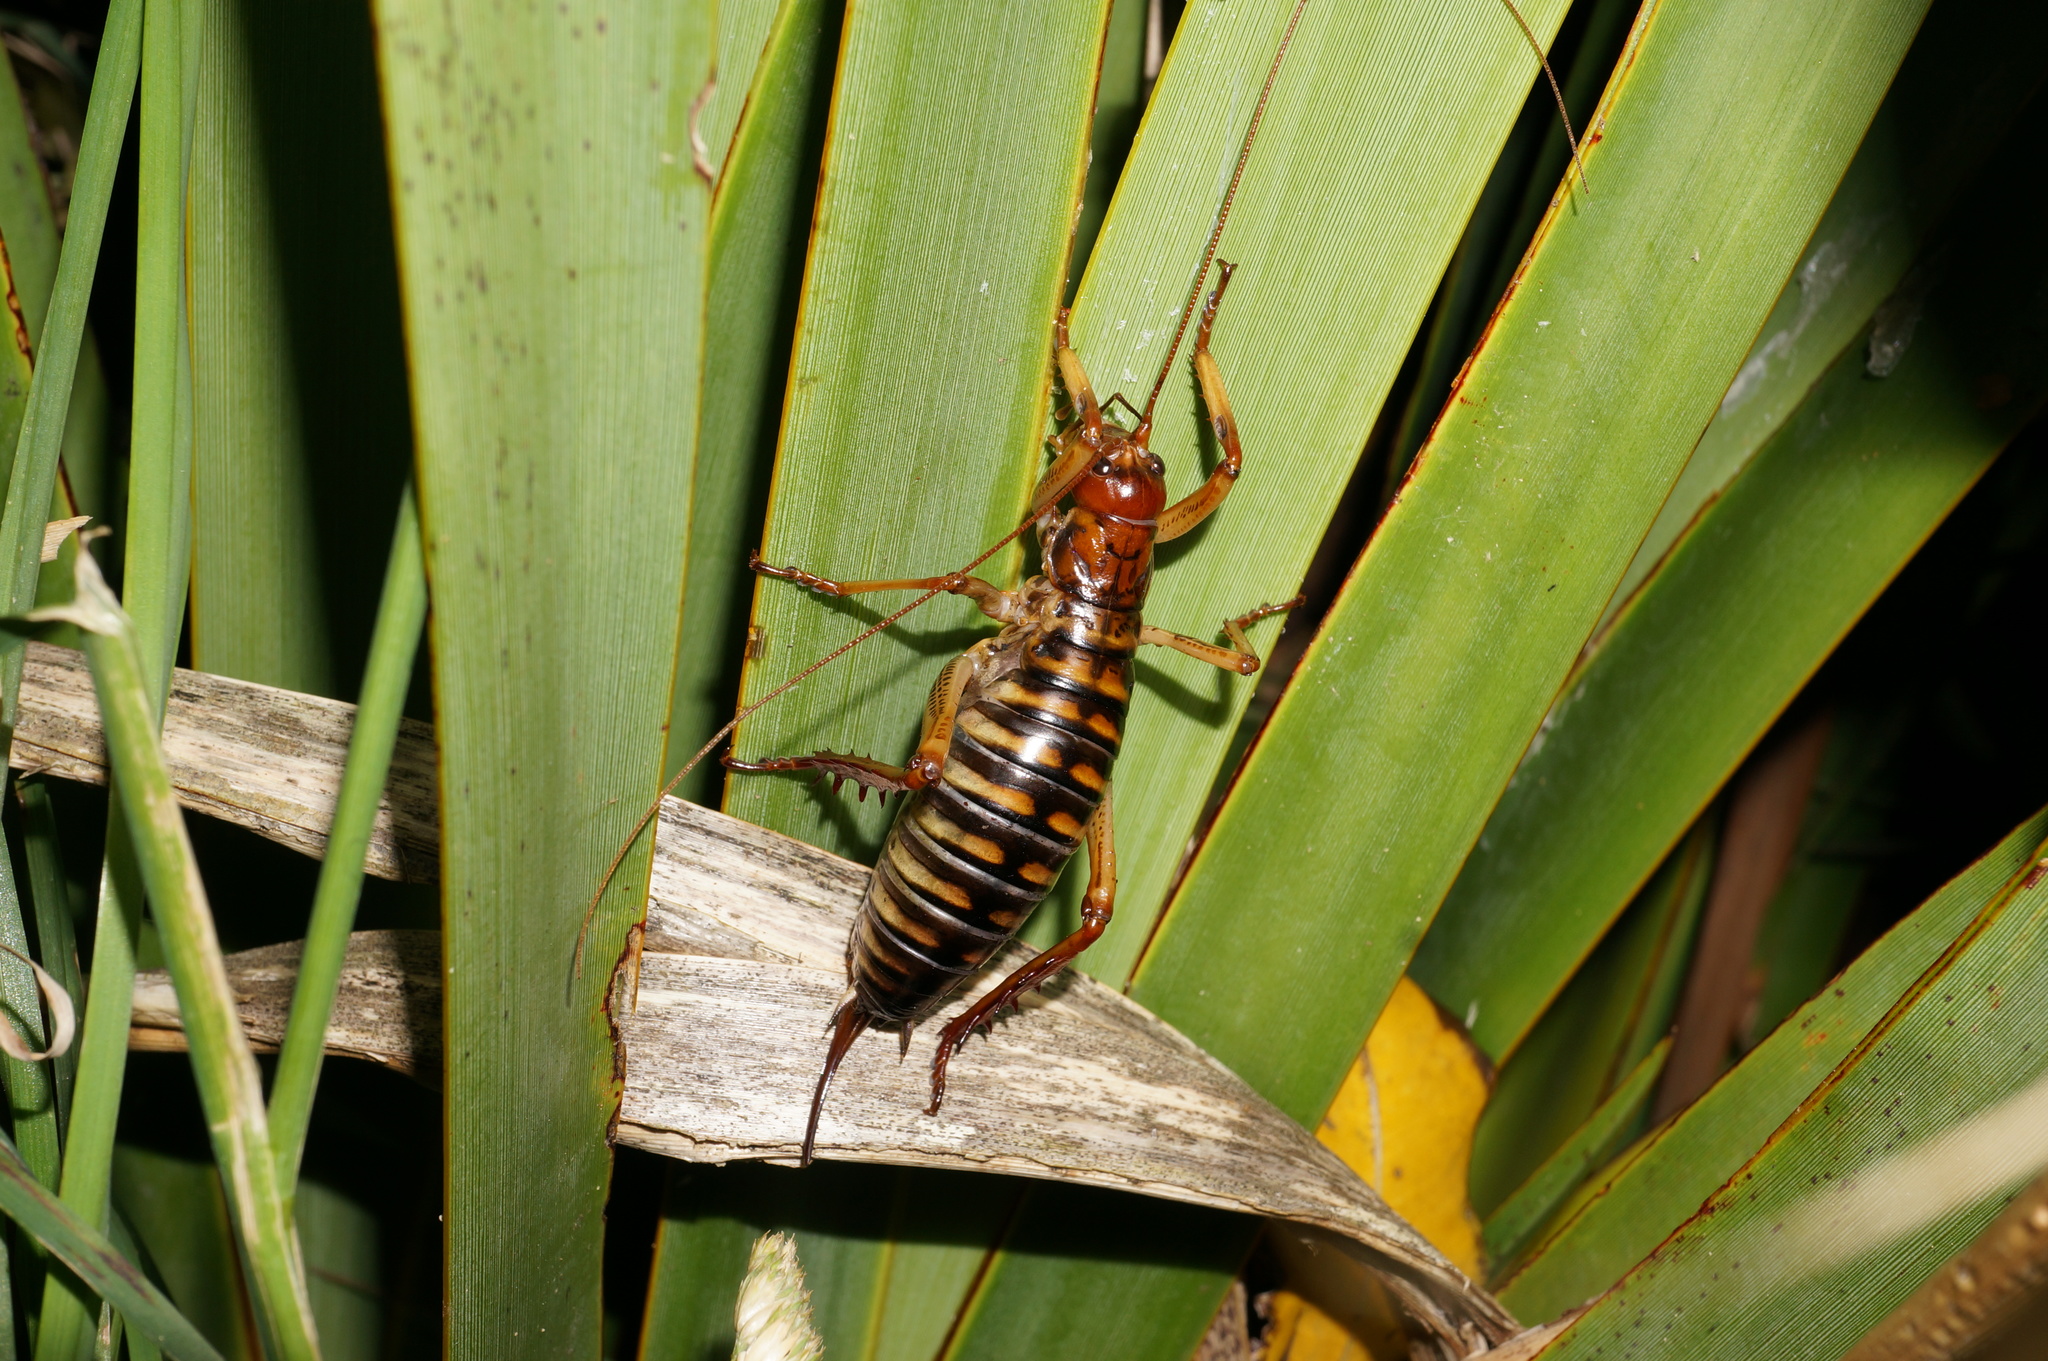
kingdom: Animalia
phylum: Arthropoda
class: Insecta
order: Orthoptera
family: Anostostomatidae
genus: Hemideina
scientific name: Hemideina crassidens
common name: Wellington tree weta
